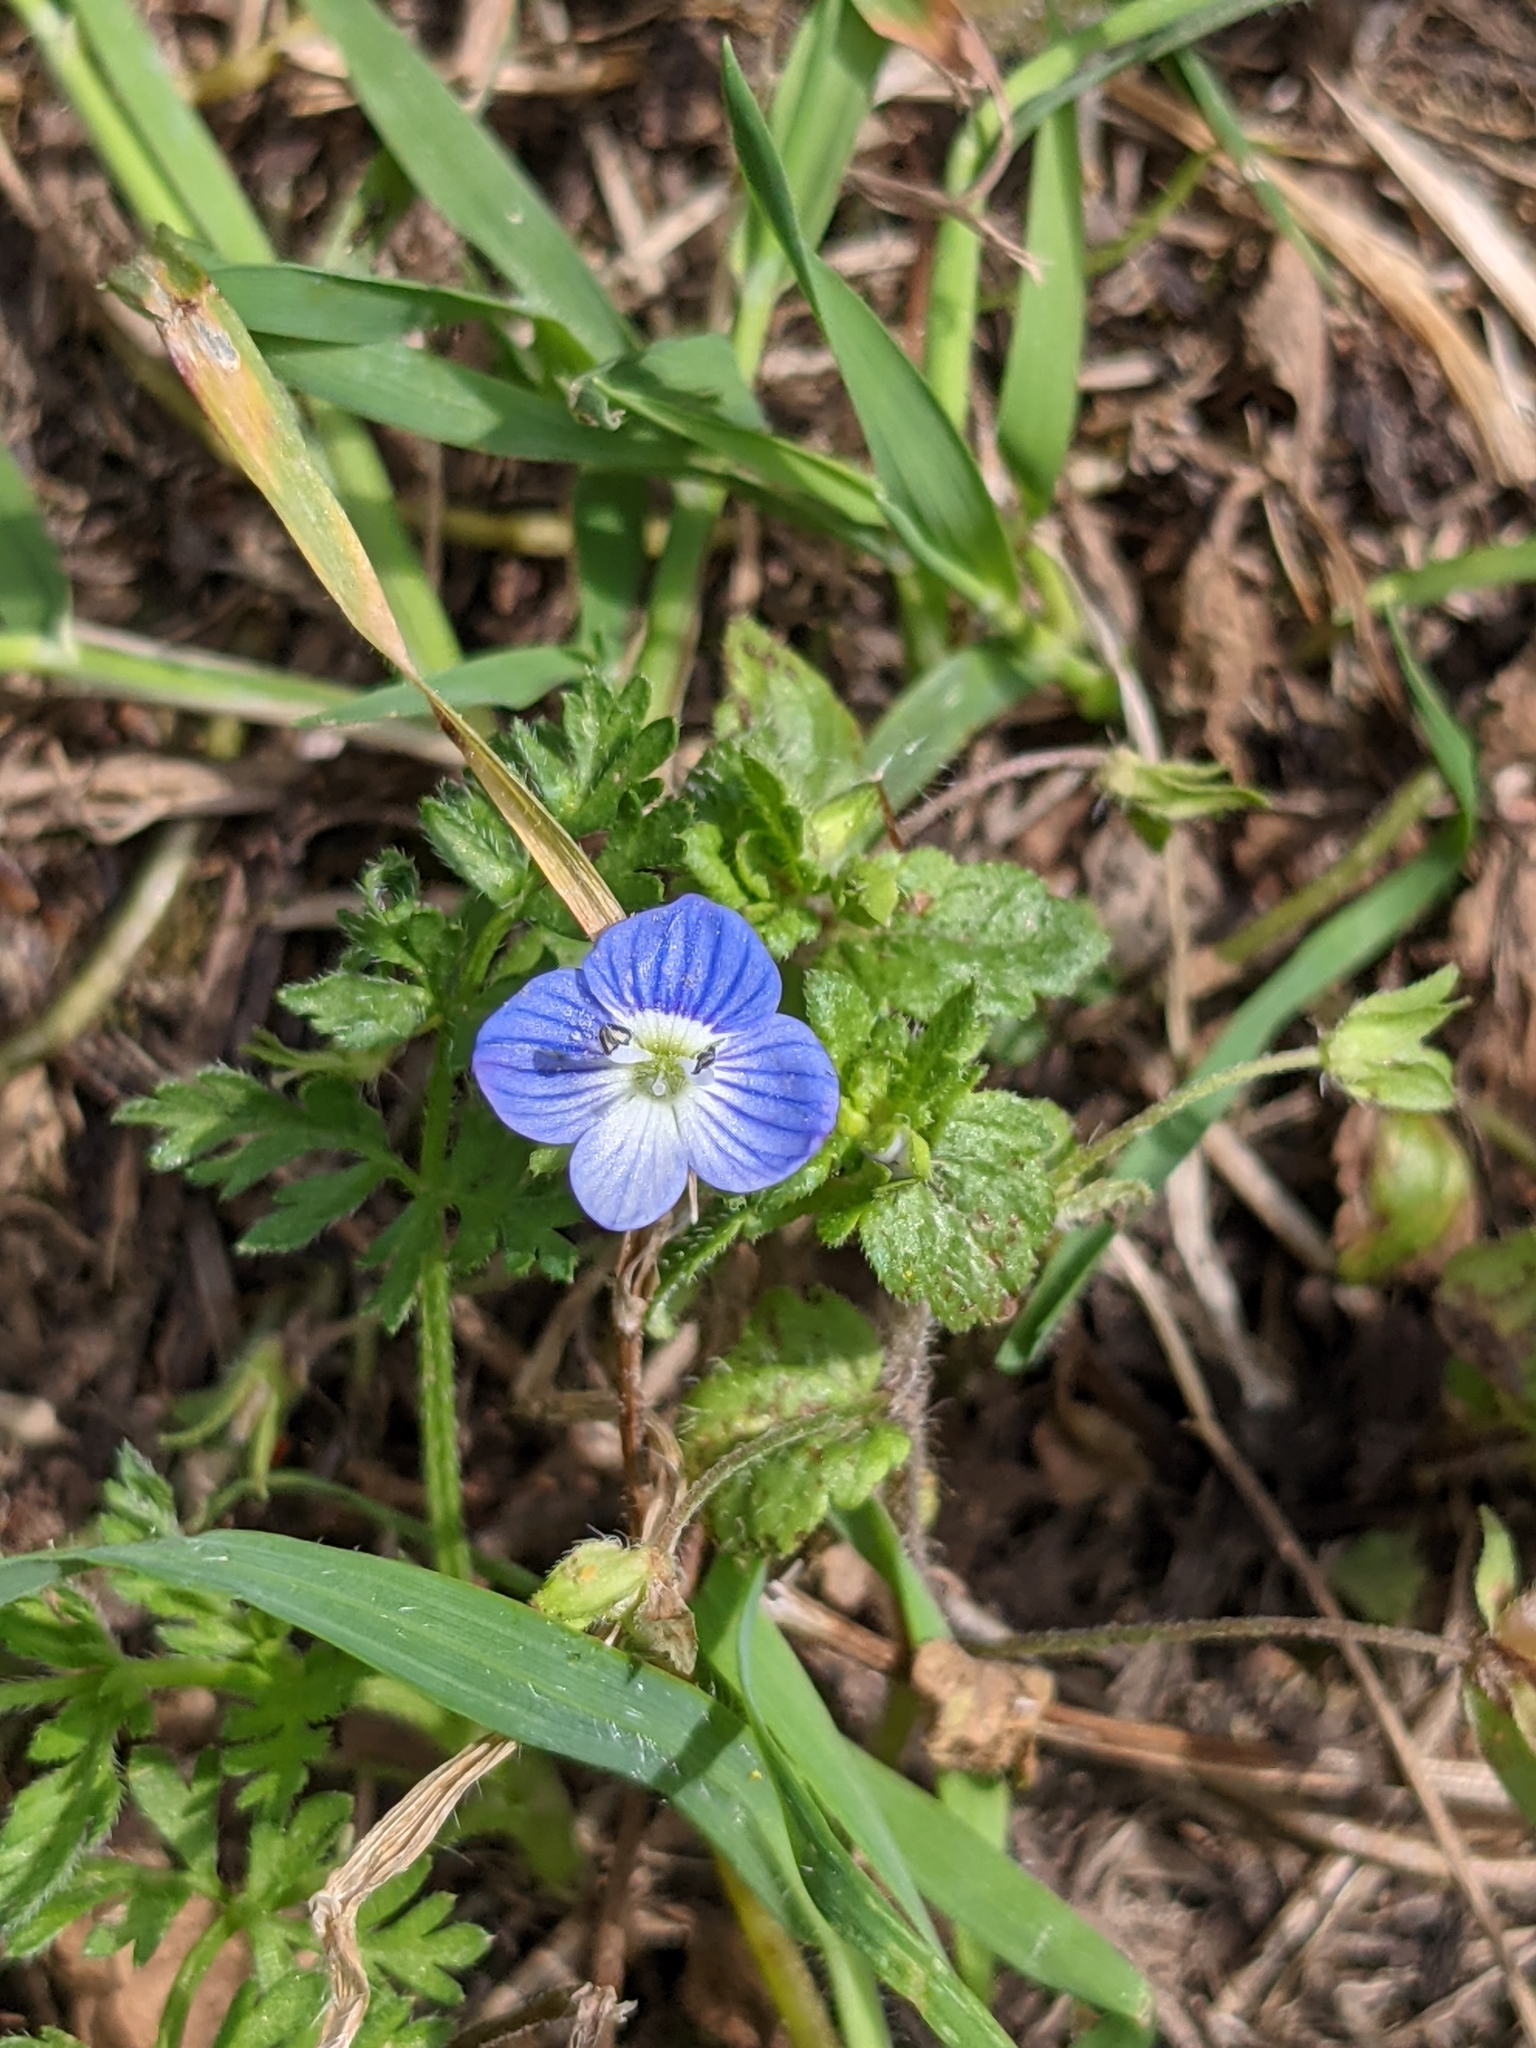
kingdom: Plantae
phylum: Tracheophyta
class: Magnoliopsida
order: Lamiales
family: Plantaginaceae
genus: Veronica
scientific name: Veronica persica
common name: Common field-speedwell
